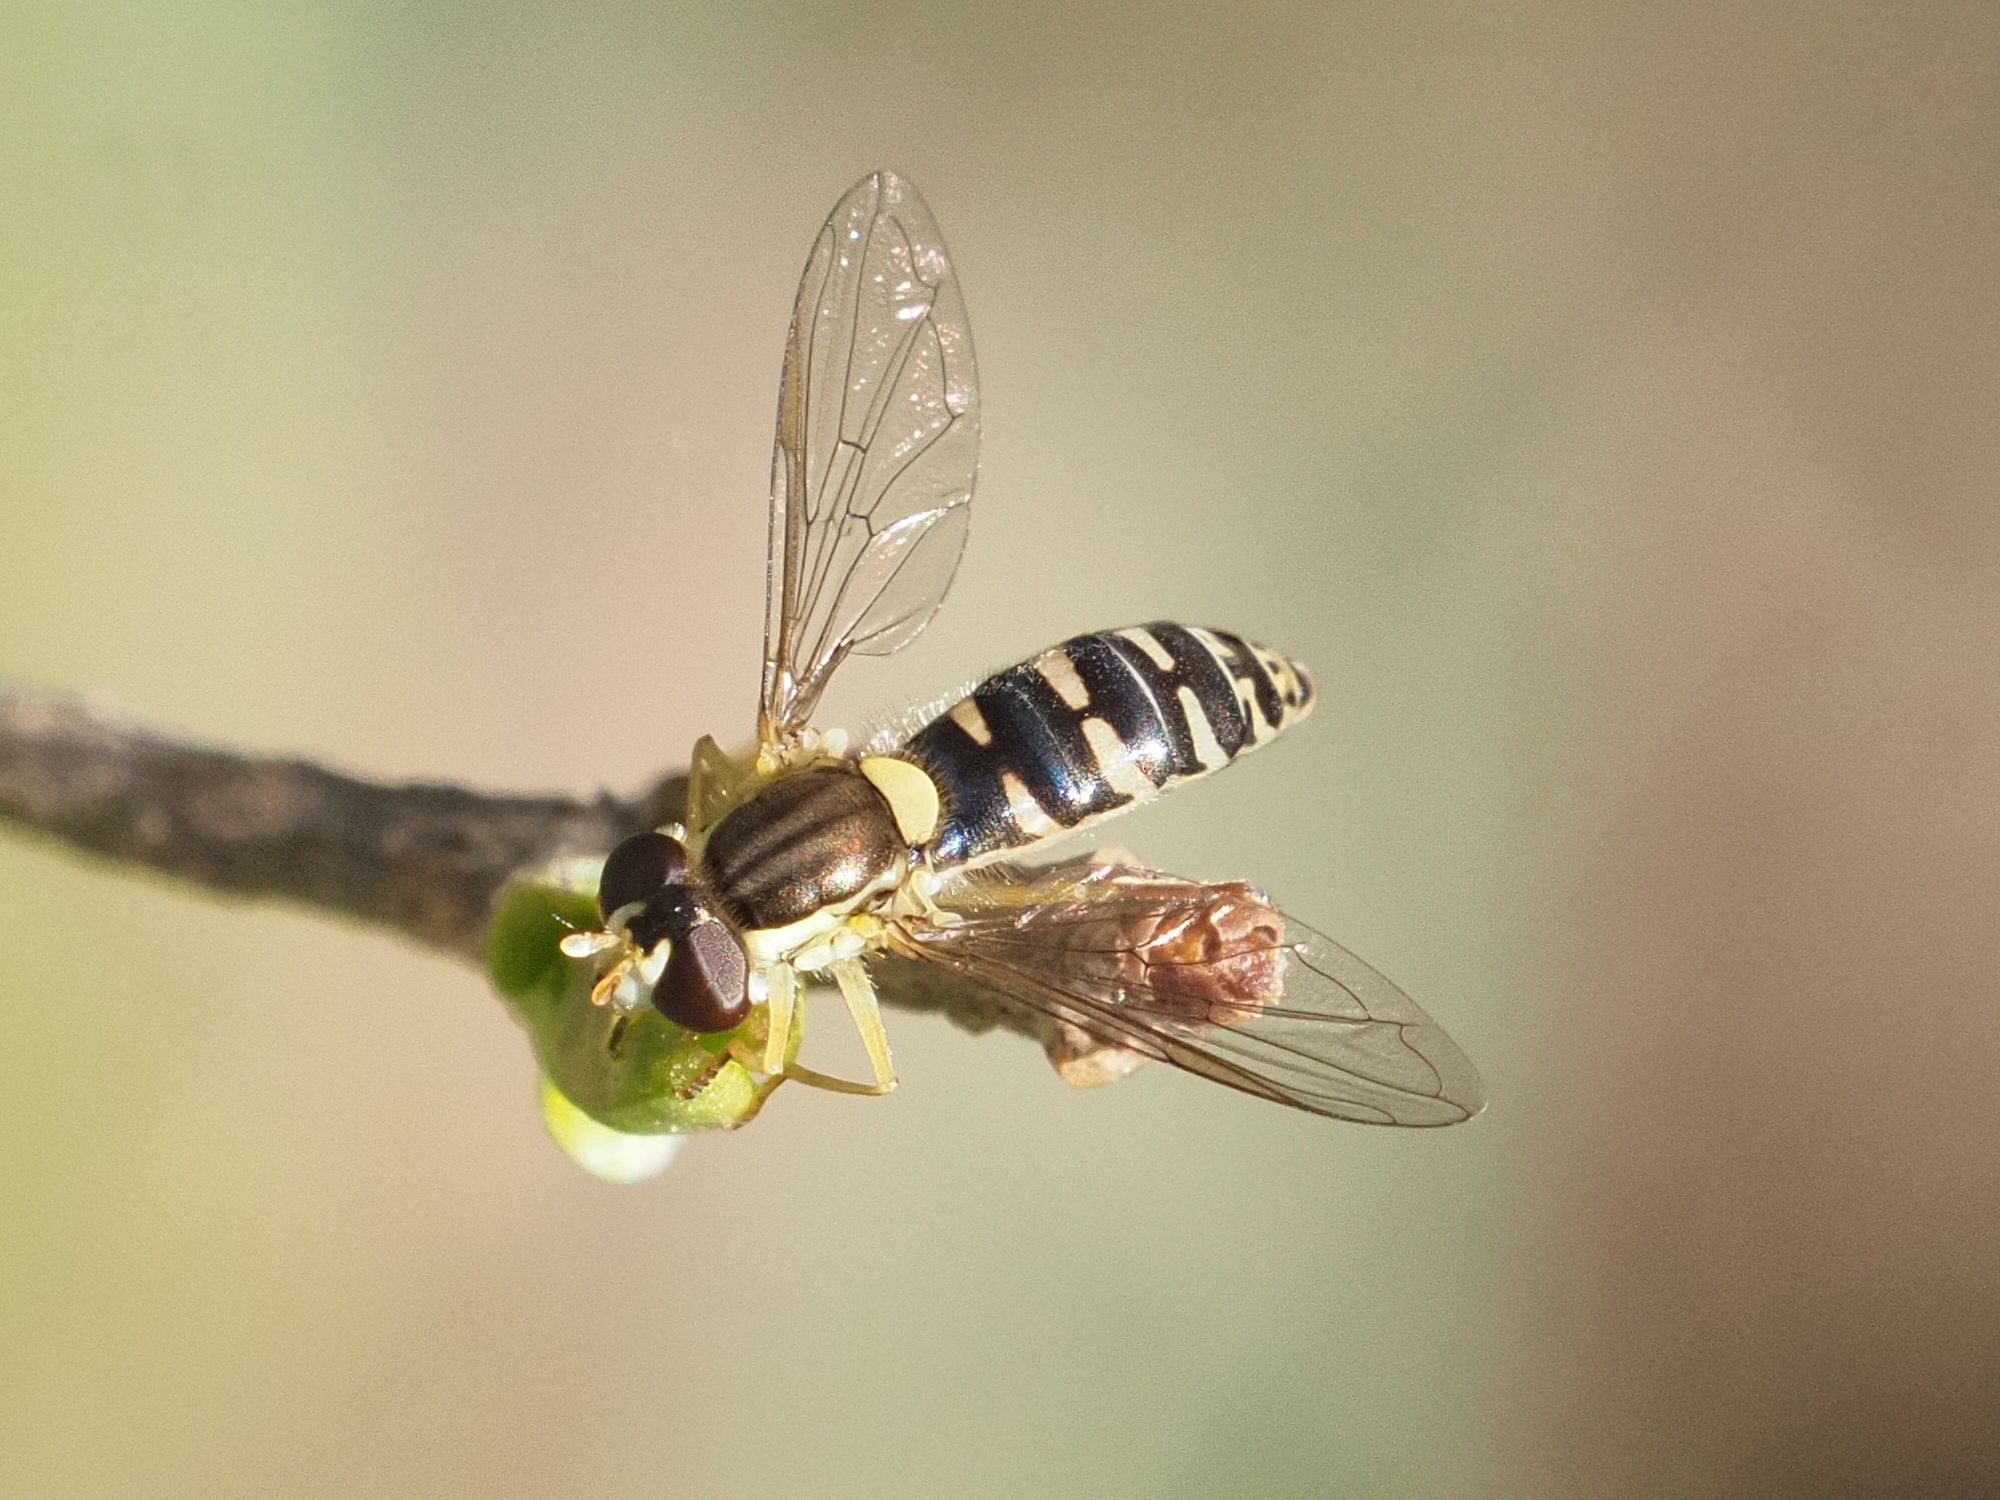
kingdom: Animalia
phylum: Arthropoda
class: Insecta
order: Diptera
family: Syrphidae
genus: Sphaerophoria
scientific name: Sphaerophoria
